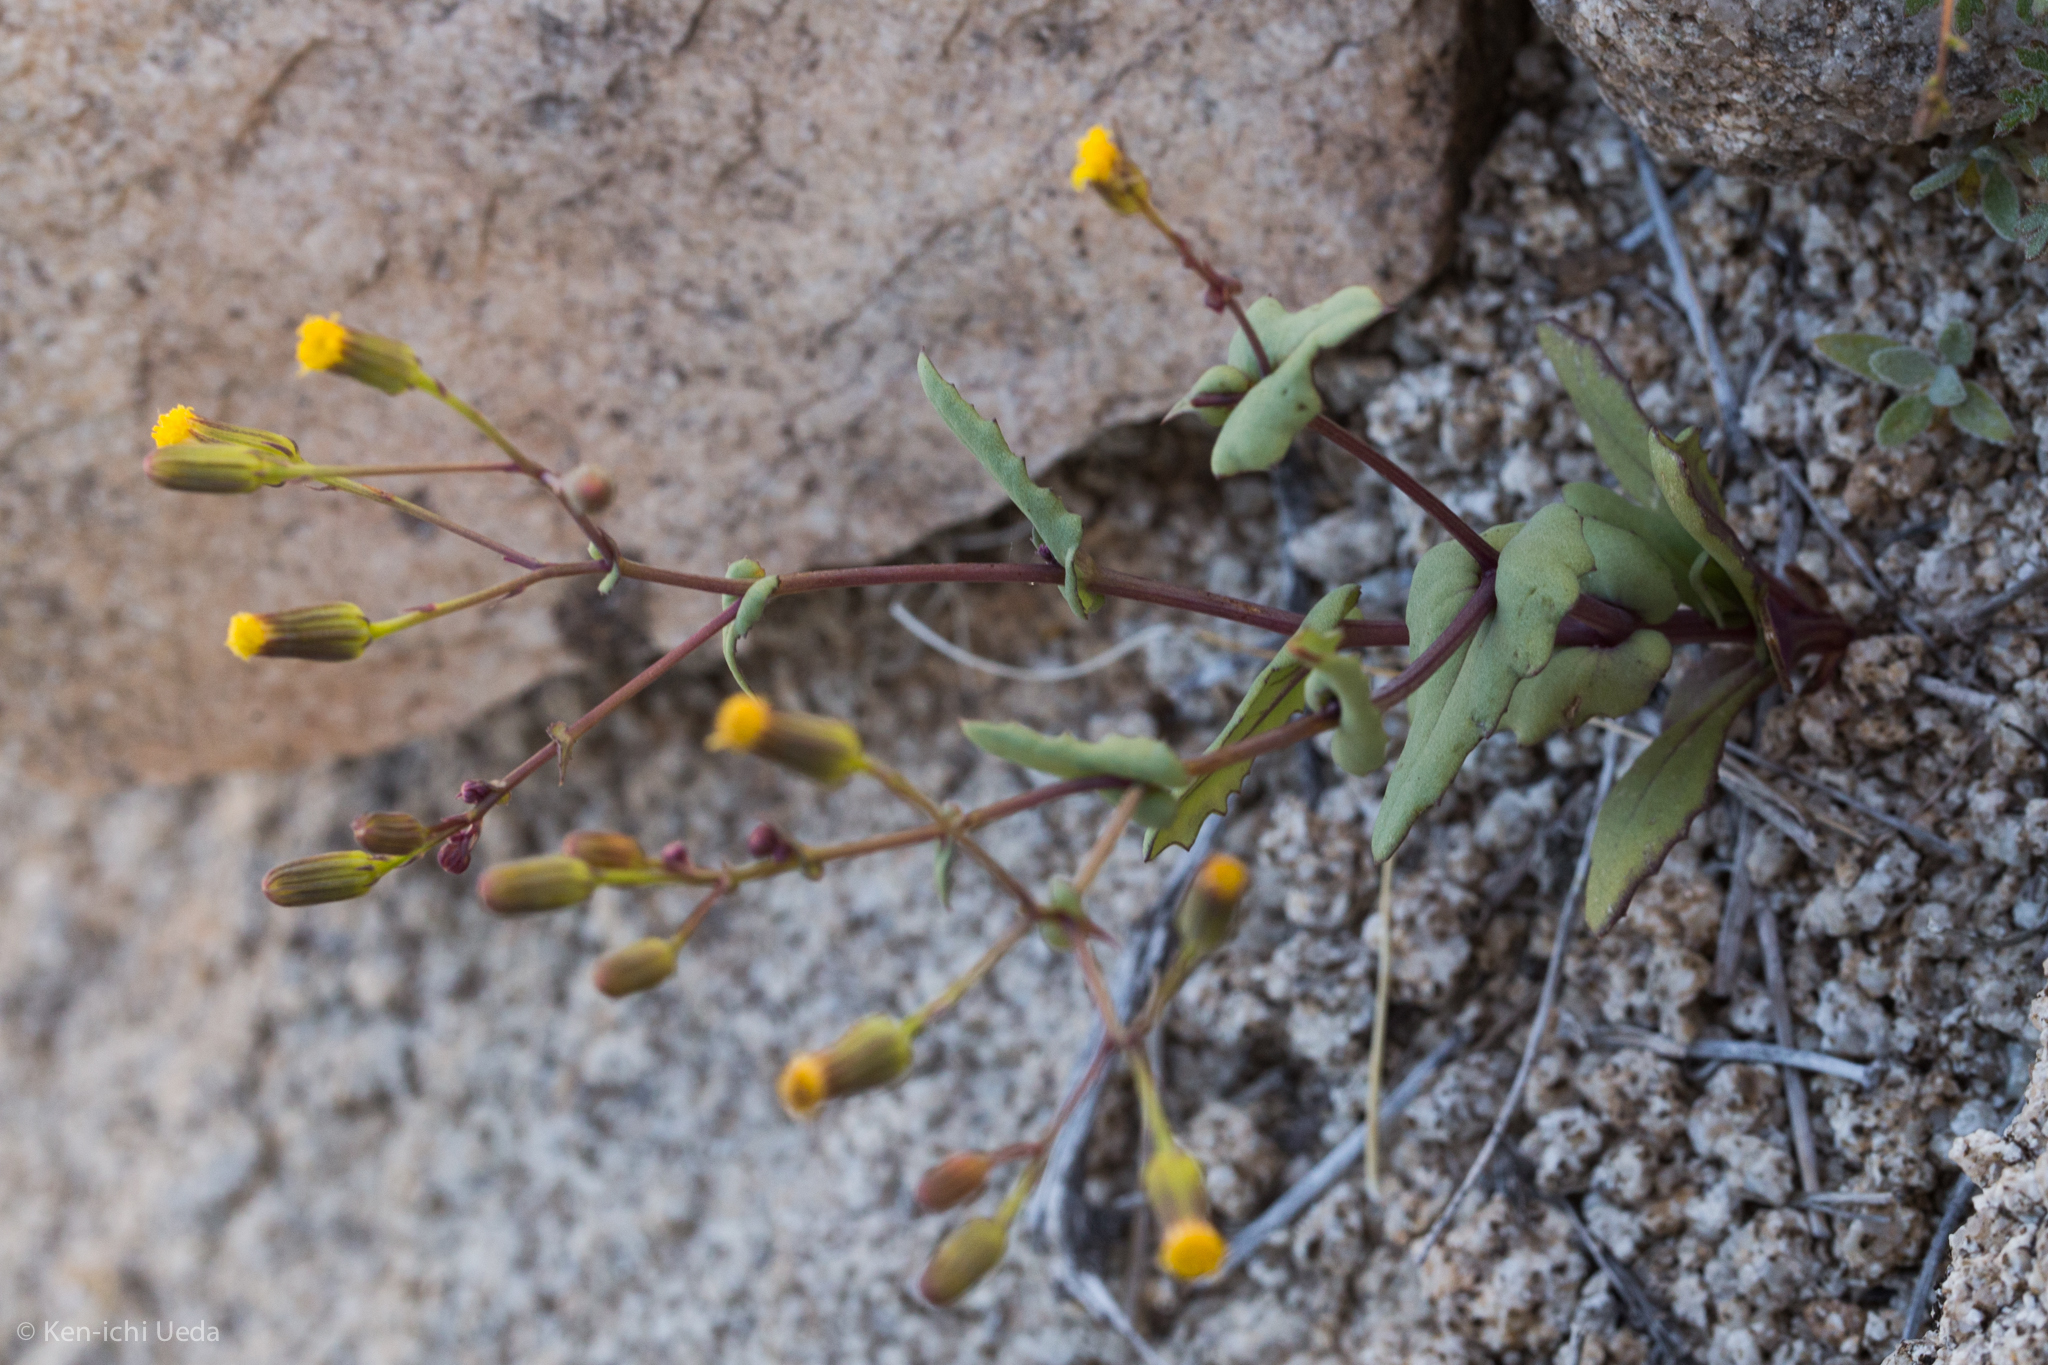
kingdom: Plantae
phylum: Tracheophyta
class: Magnoliopsida
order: Asterales
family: Asteraceae
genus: Senecio
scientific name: Senecio mohavensis
